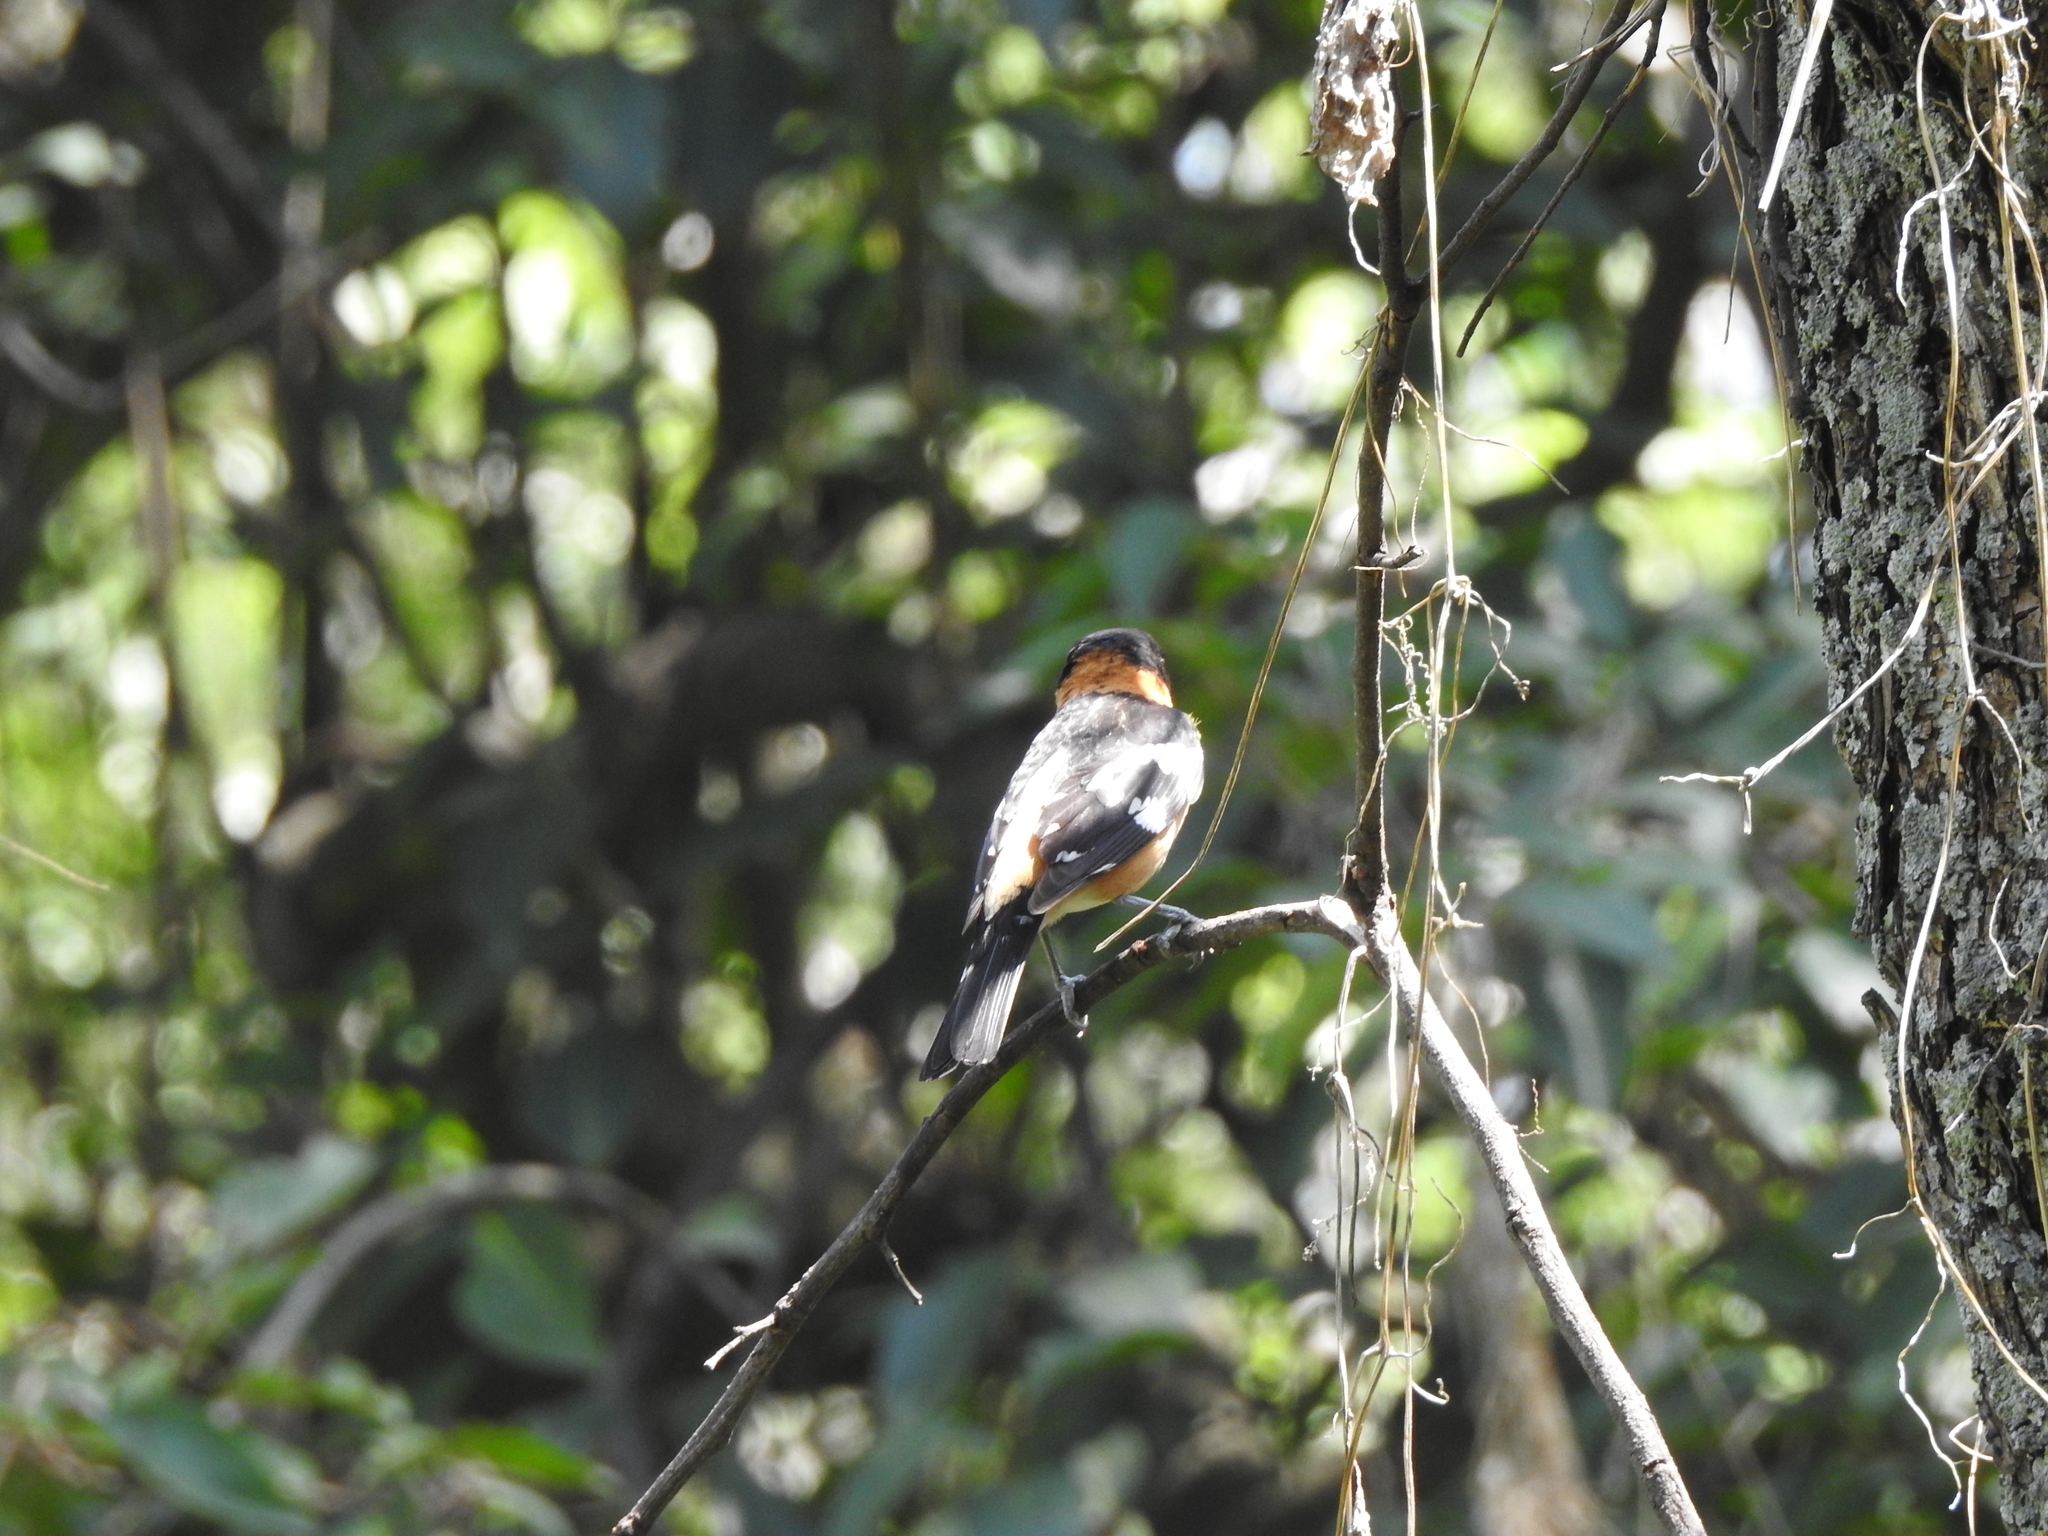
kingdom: Animalia
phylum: Chordata
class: Aves
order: Passeriformes
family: Cardinalidae
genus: Pheucticus
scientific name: Pheucticus melanocephalus
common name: Black-headed grosbeak
